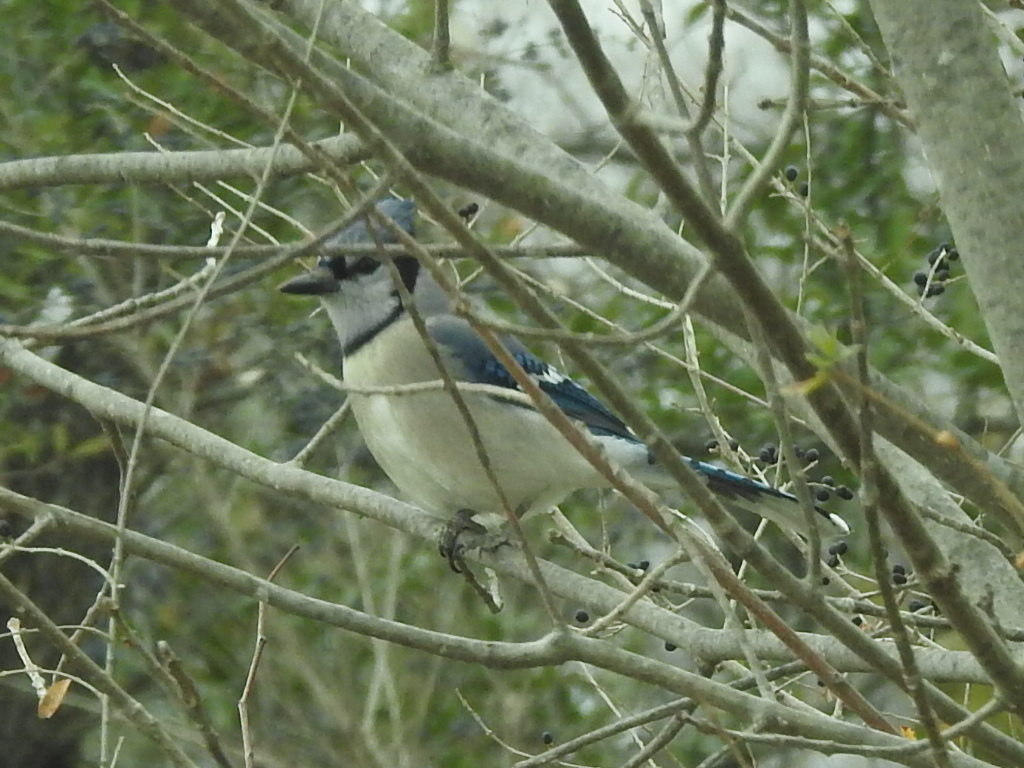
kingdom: Animalia
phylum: Chordata
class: Aves
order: Passeriformes
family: Corvidae
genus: Cyanocitta
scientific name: Cyanocitta cristata
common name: Blue jay
